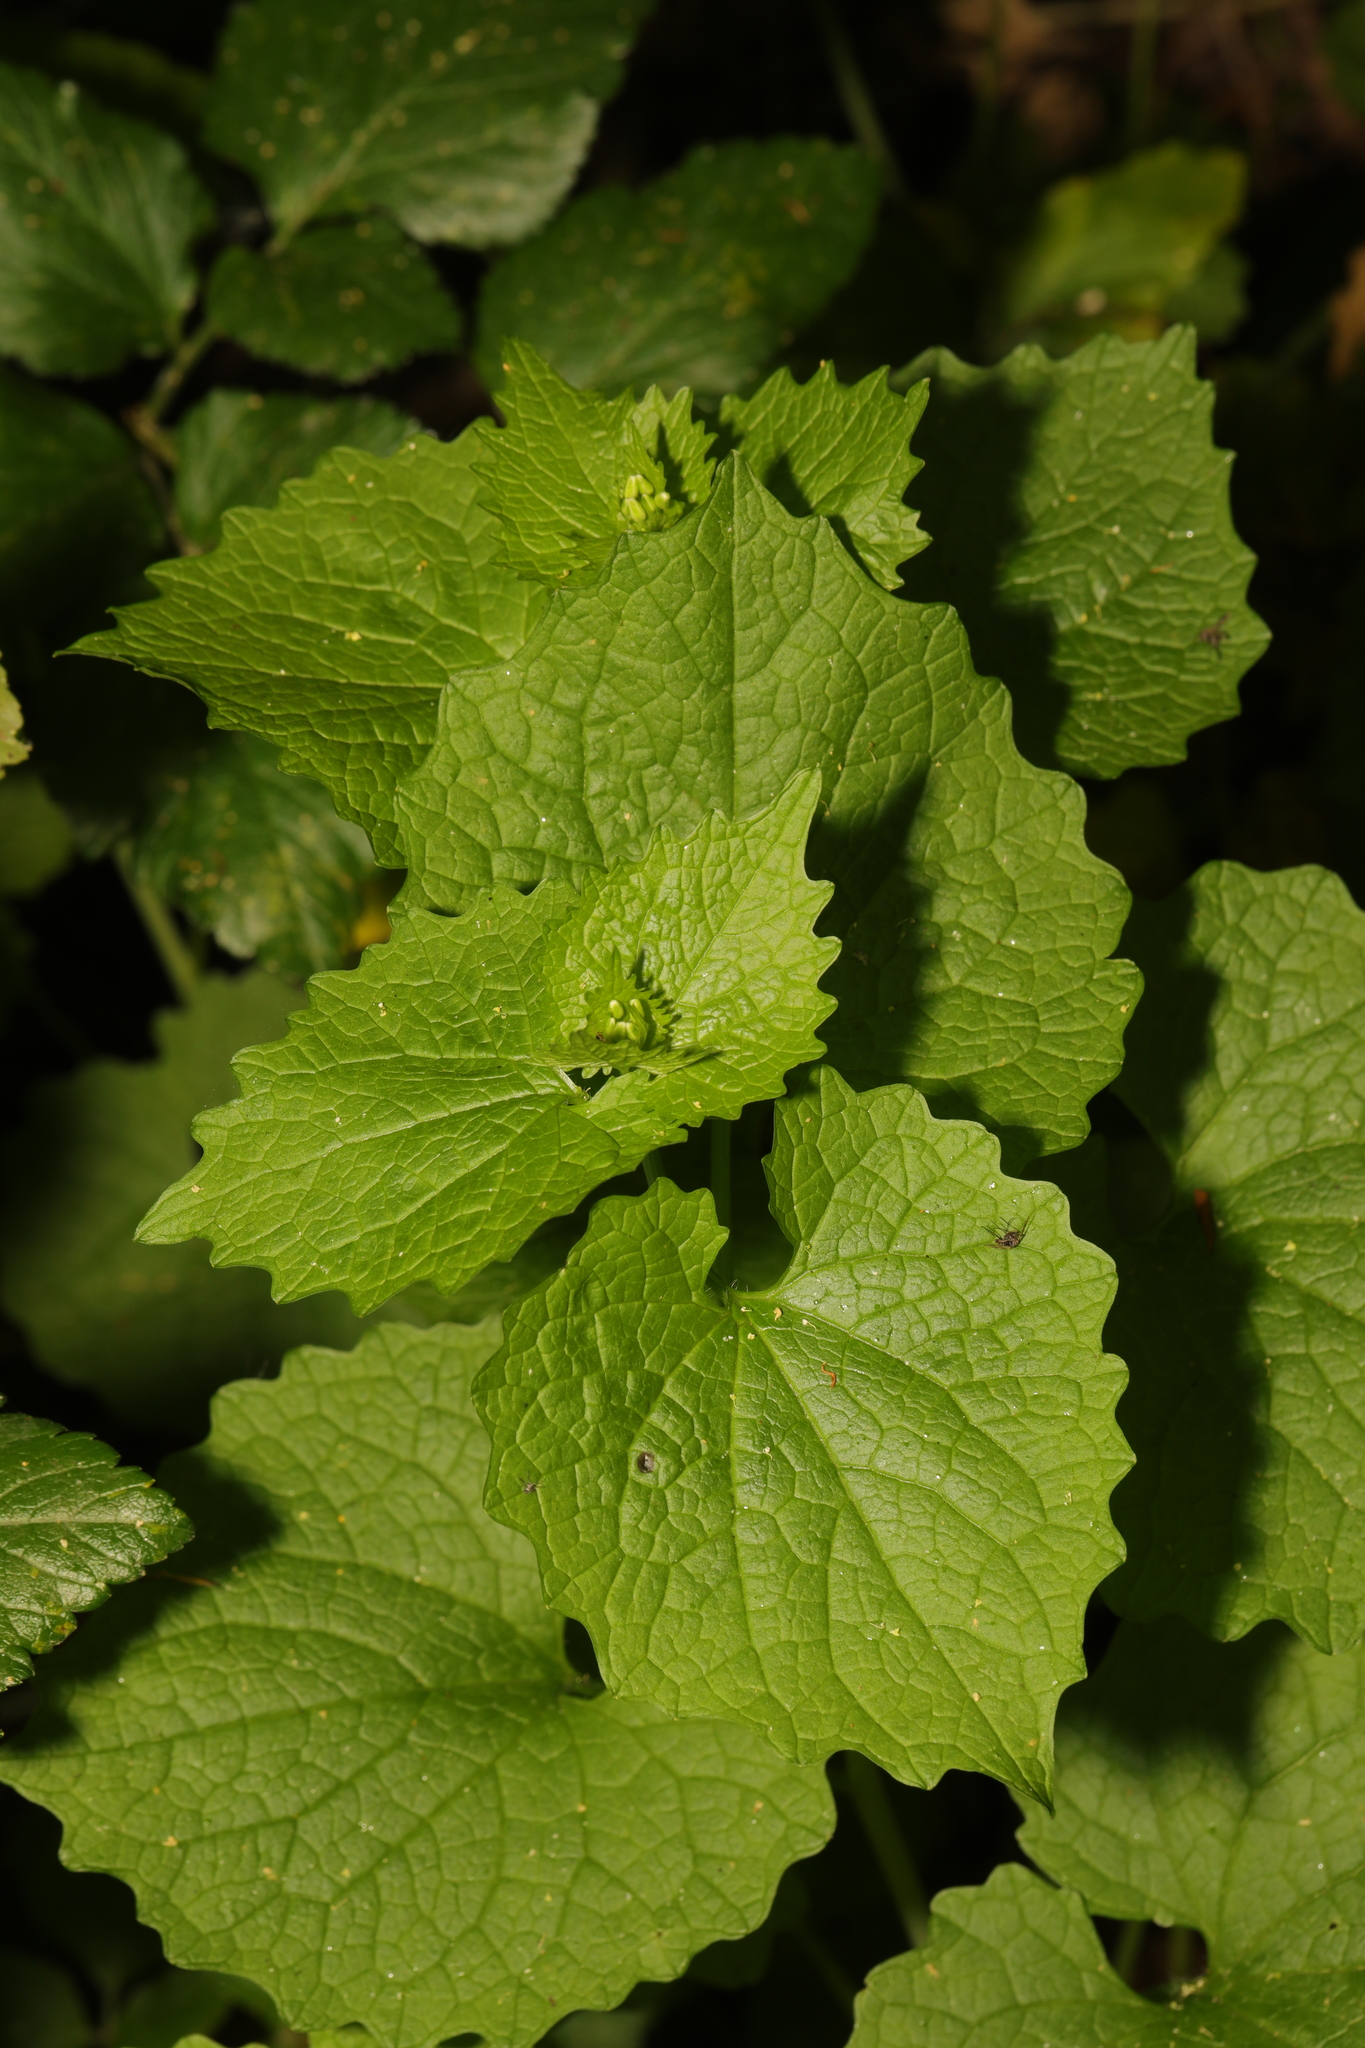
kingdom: Plantae
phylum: Tracheophyta
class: Magnoliopsida
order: Brassicales
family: Brassicaceae
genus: Alliaria
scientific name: Alliaria petiolata
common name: Garlic mustard
